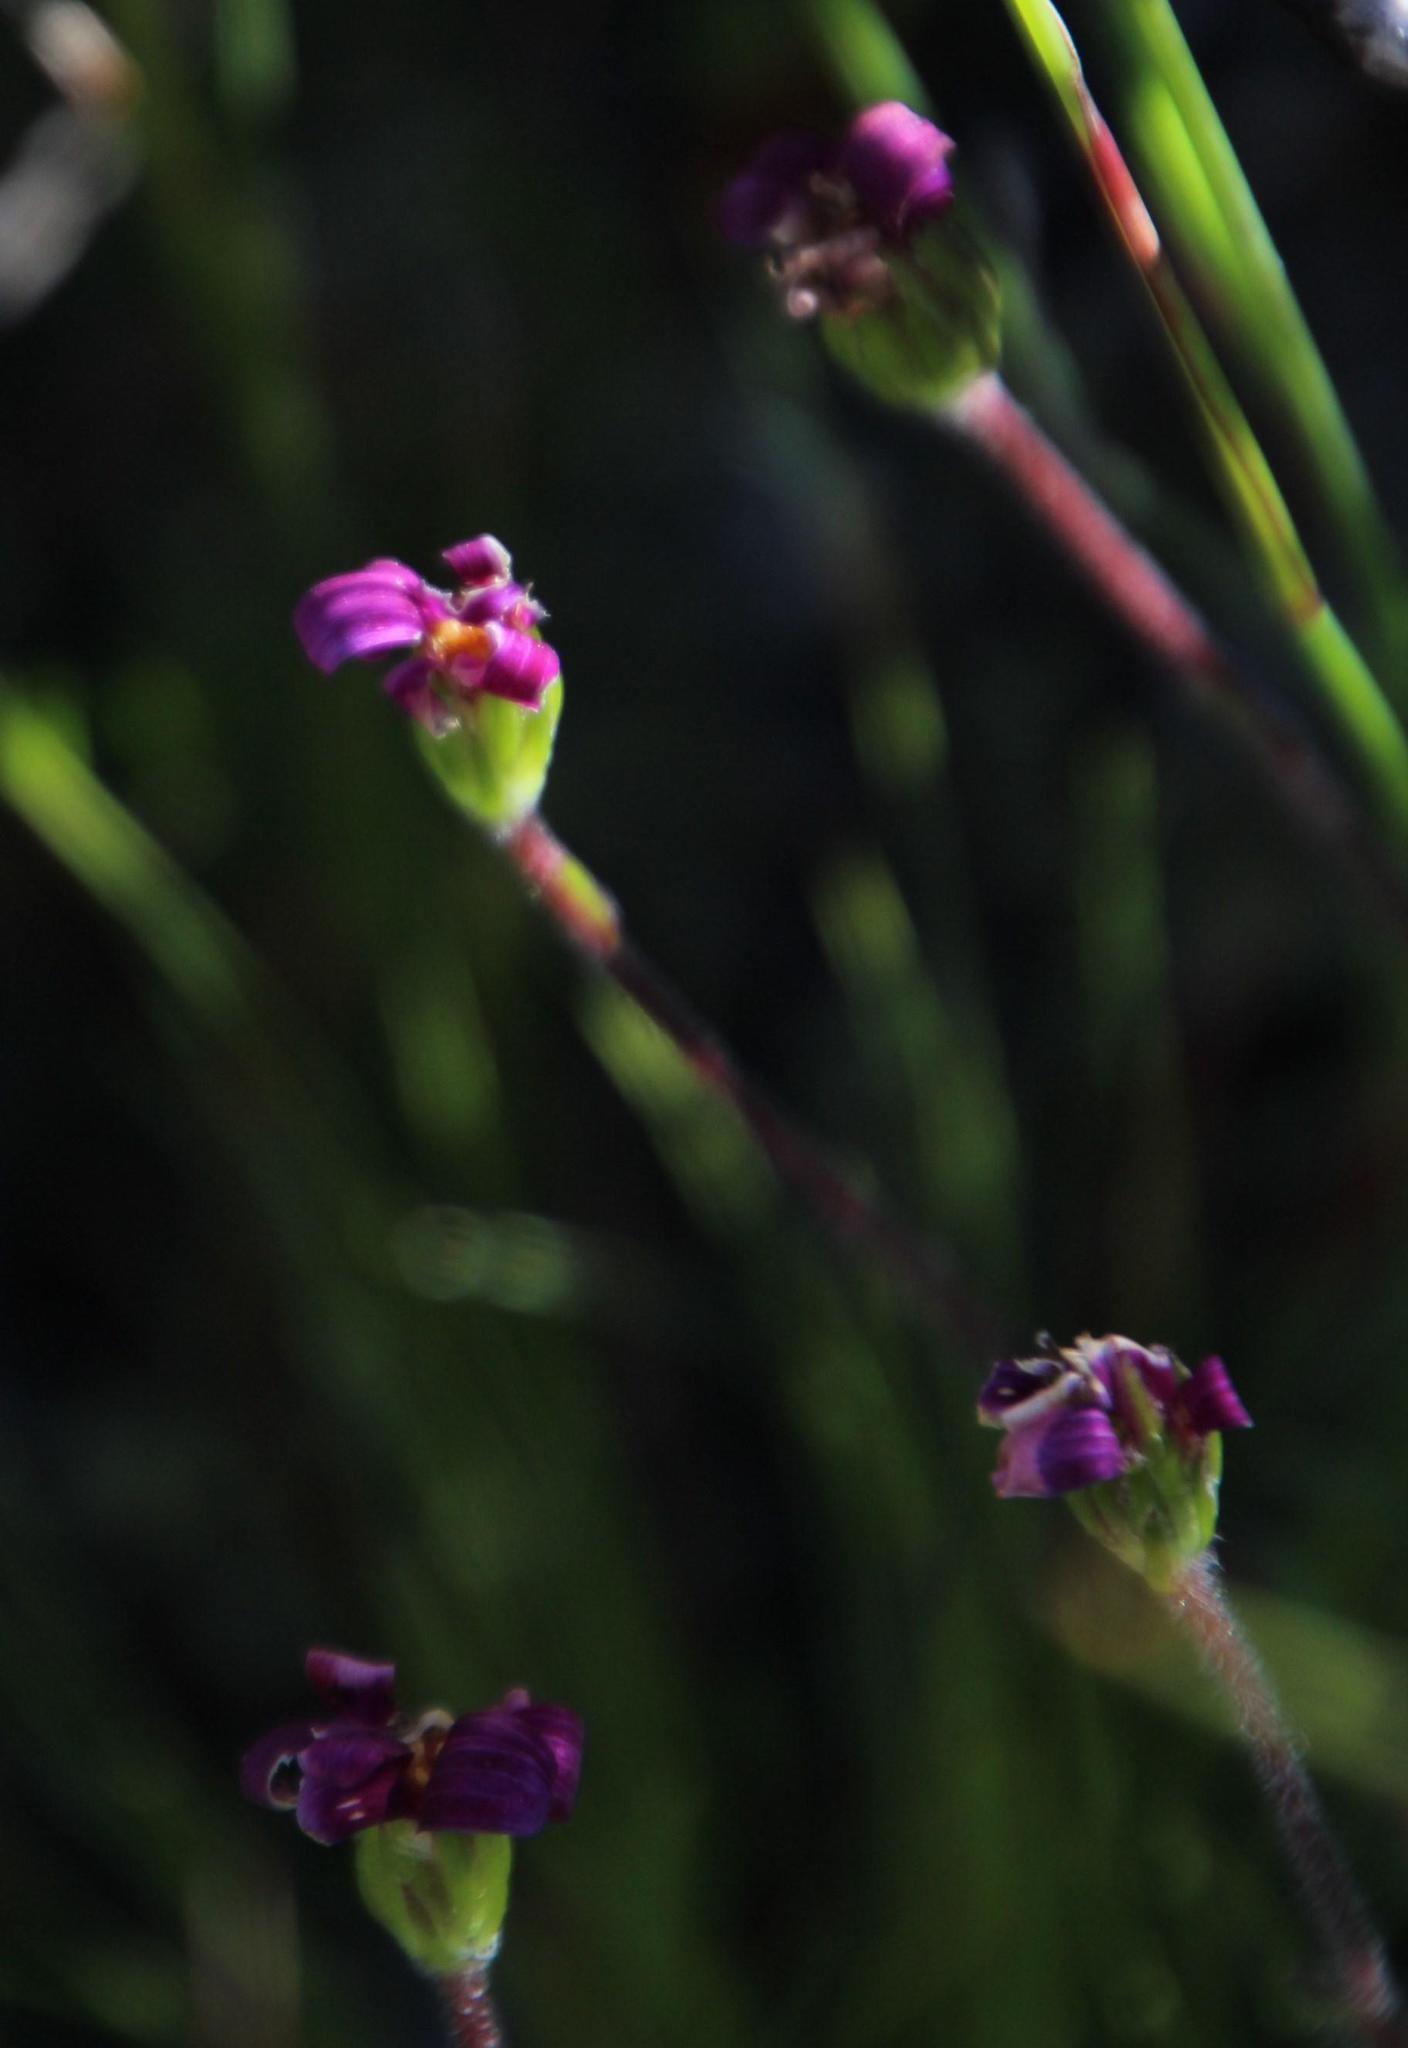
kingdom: Plantae
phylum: Tracheophyta
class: Magnoliopsida
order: Asterales
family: Asteraceae
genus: Zyrphelis
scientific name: Zyrphelis taxifolia
